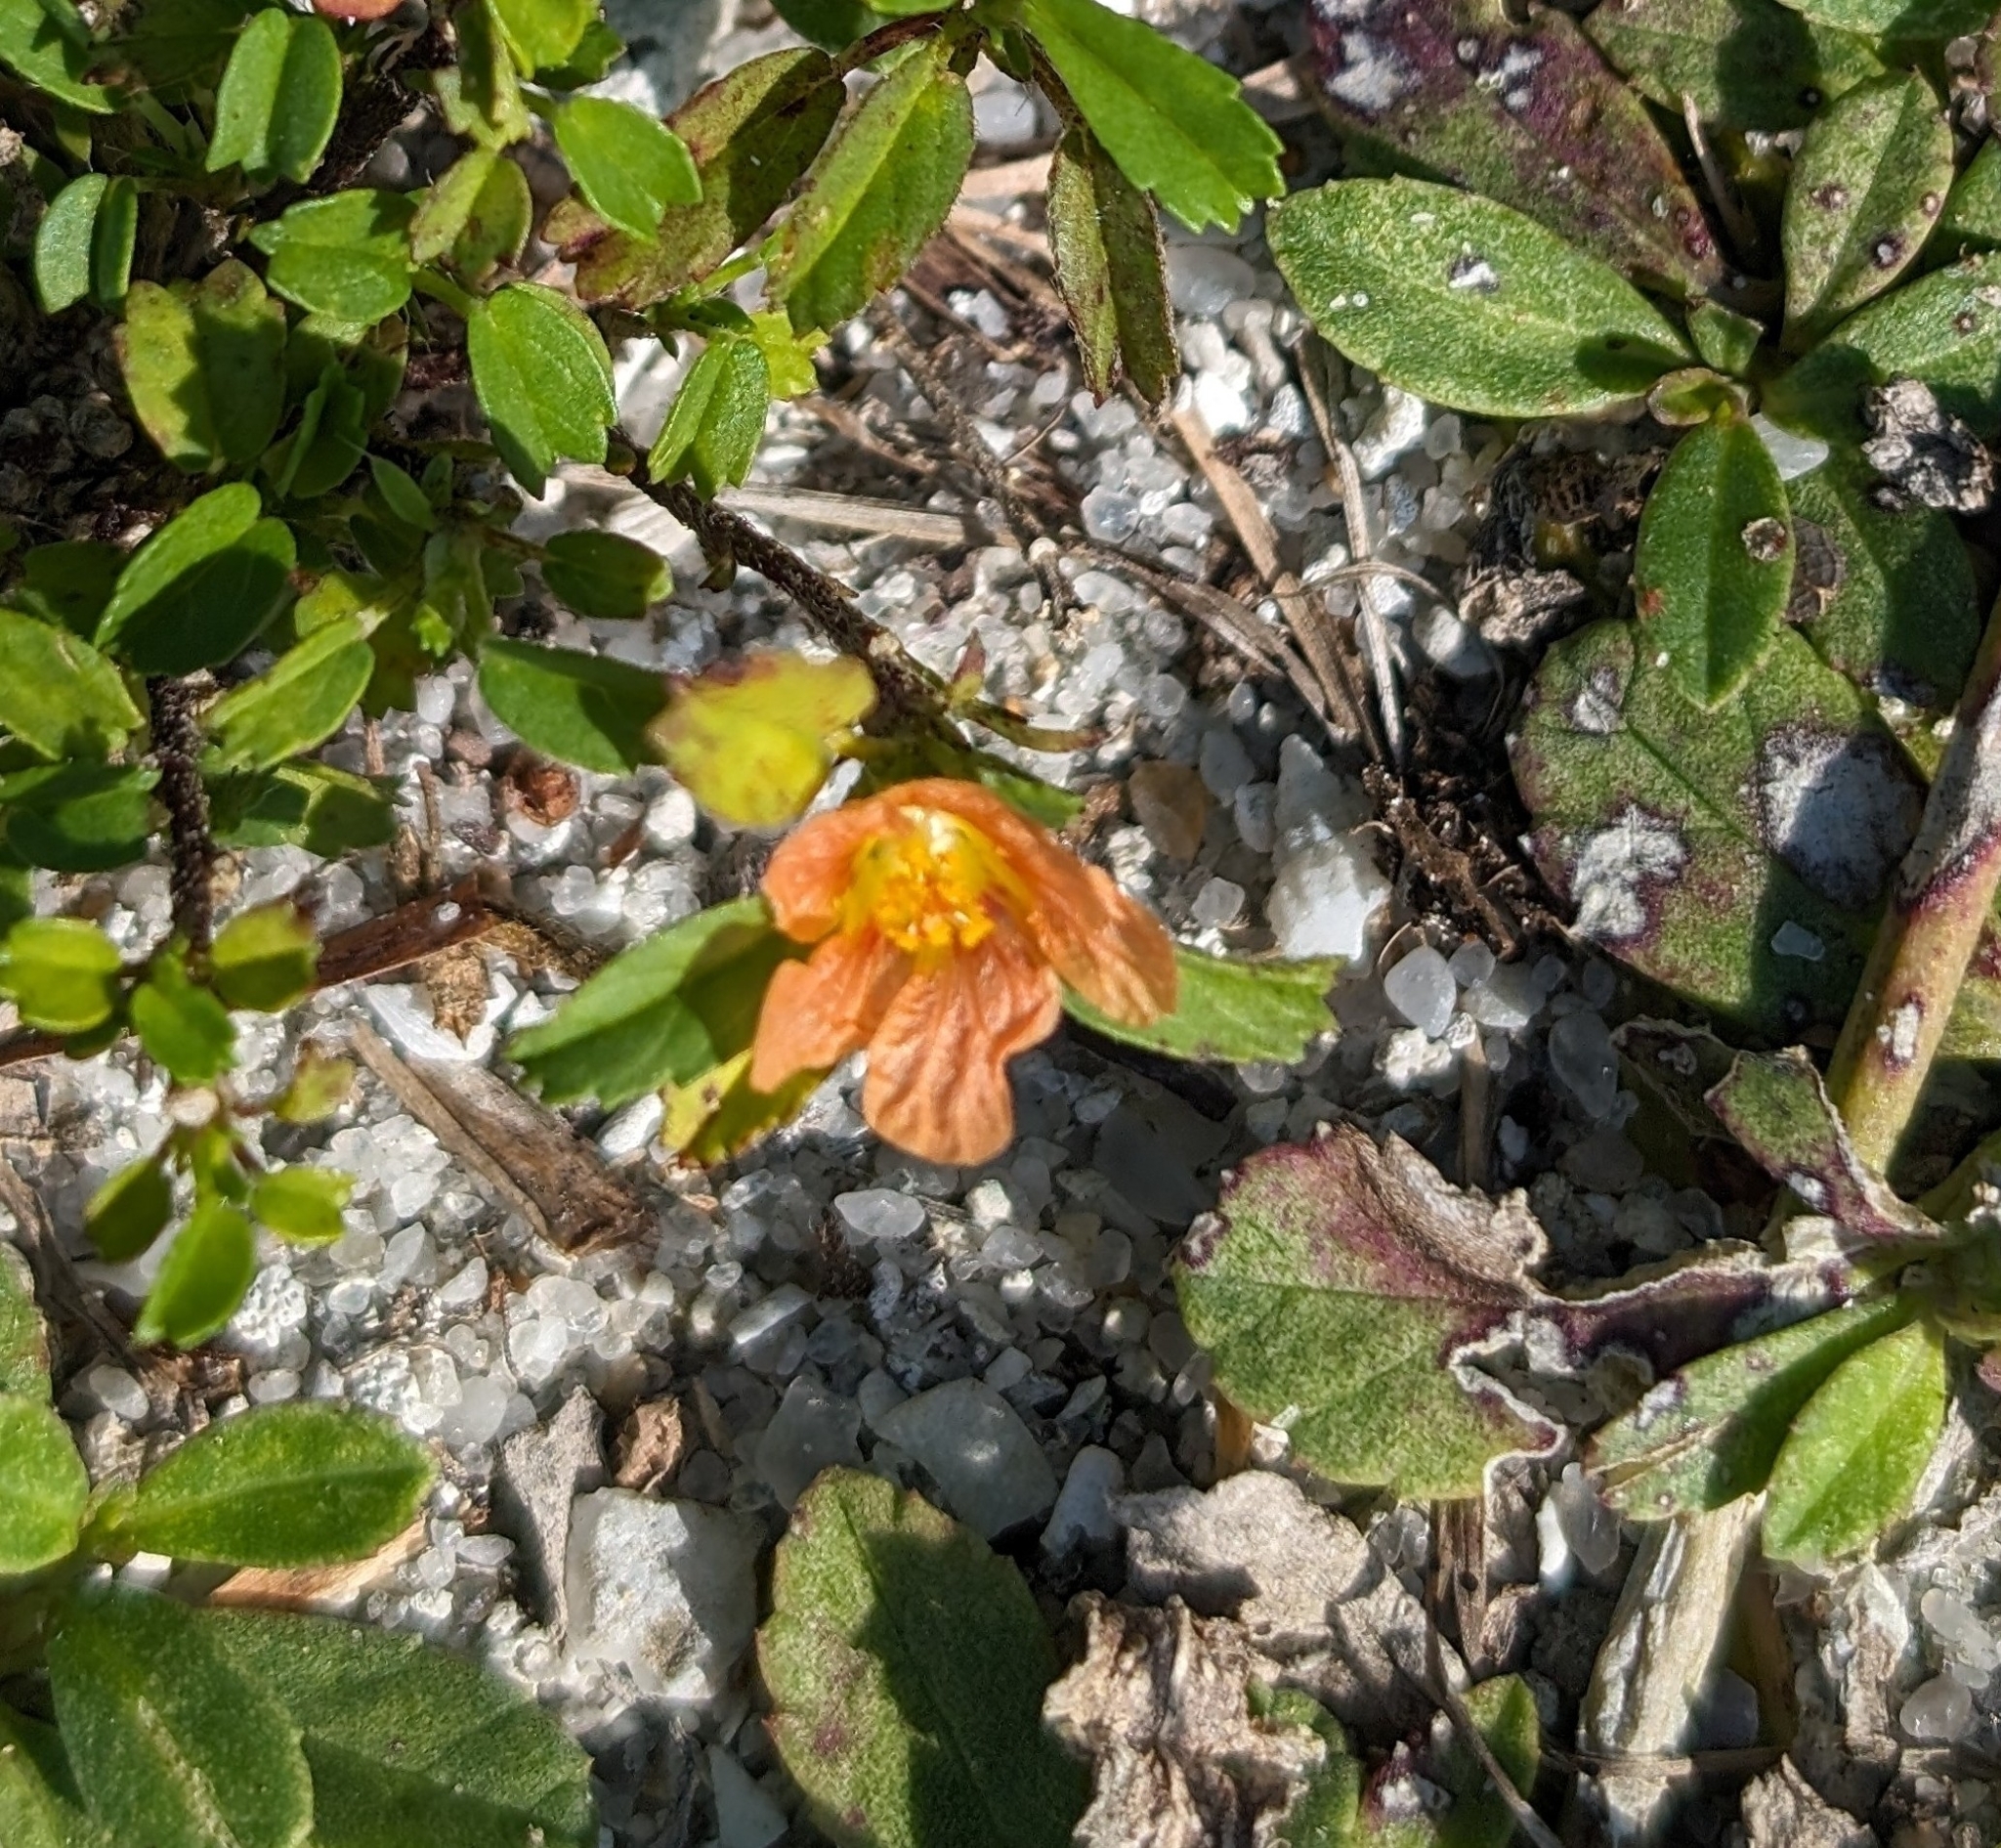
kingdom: Plantae
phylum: Tracheophyta
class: Magnoliopsida
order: Malvales
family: Malvaceae
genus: Sida
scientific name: Sida ciliaris
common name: Bracted fanpetals
